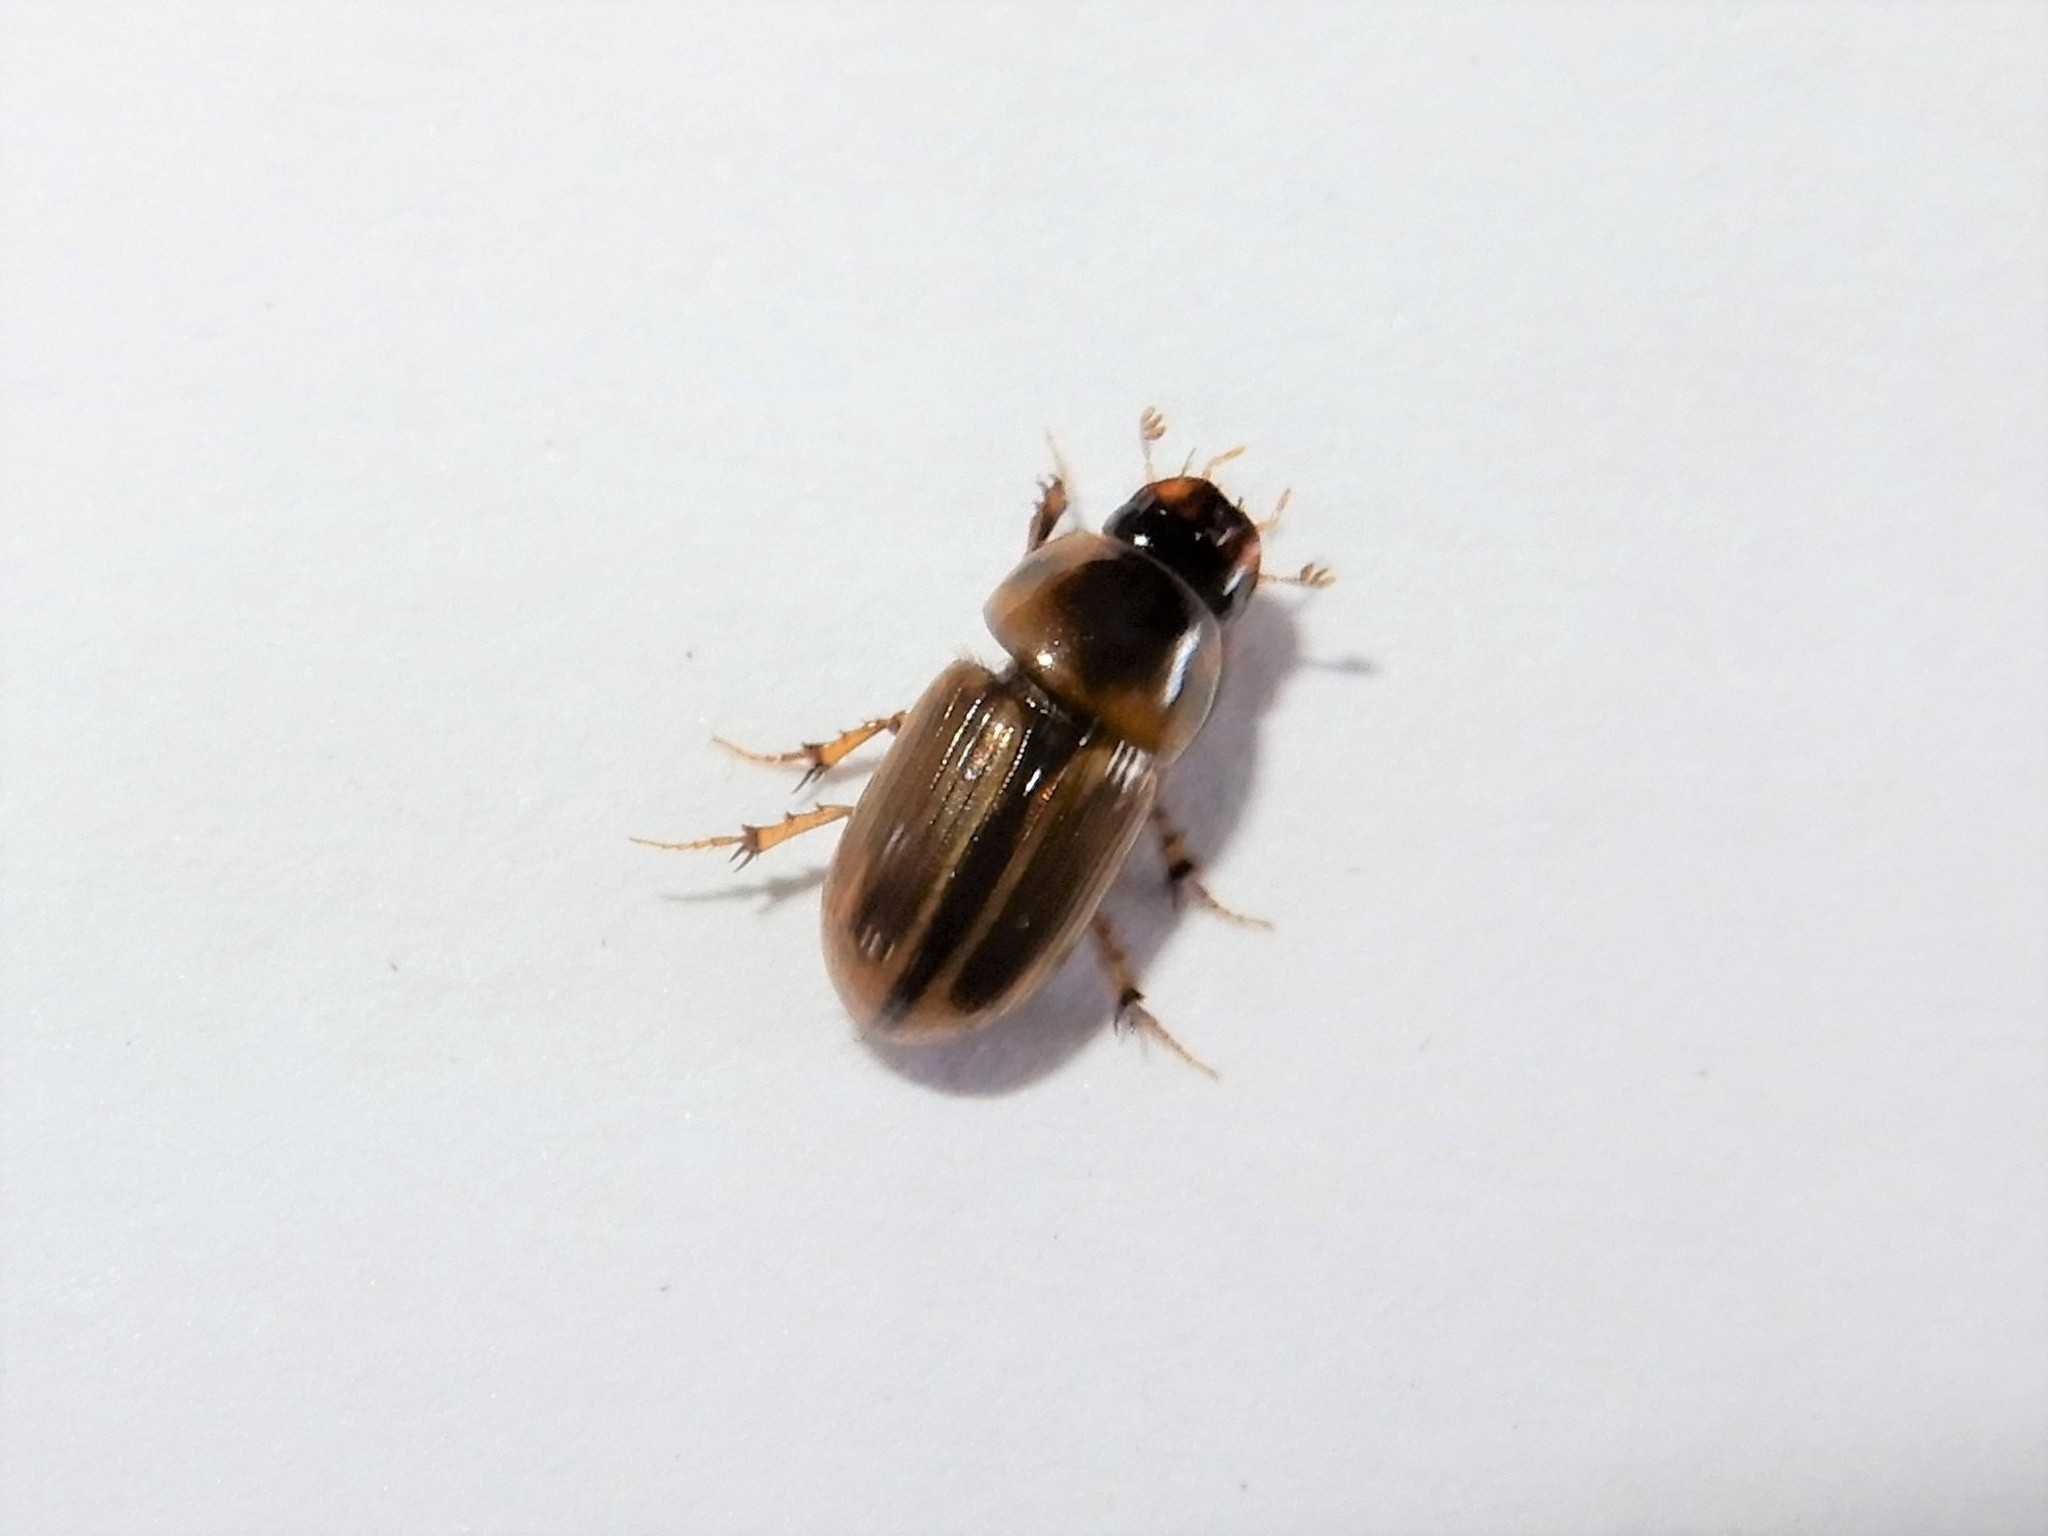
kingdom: Animalia
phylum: Arthropoda
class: Insecta
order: Coleoptera
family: Scarabaeidae
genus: Labarrus
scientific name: Labarrus lividus
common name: Scarab beetle
